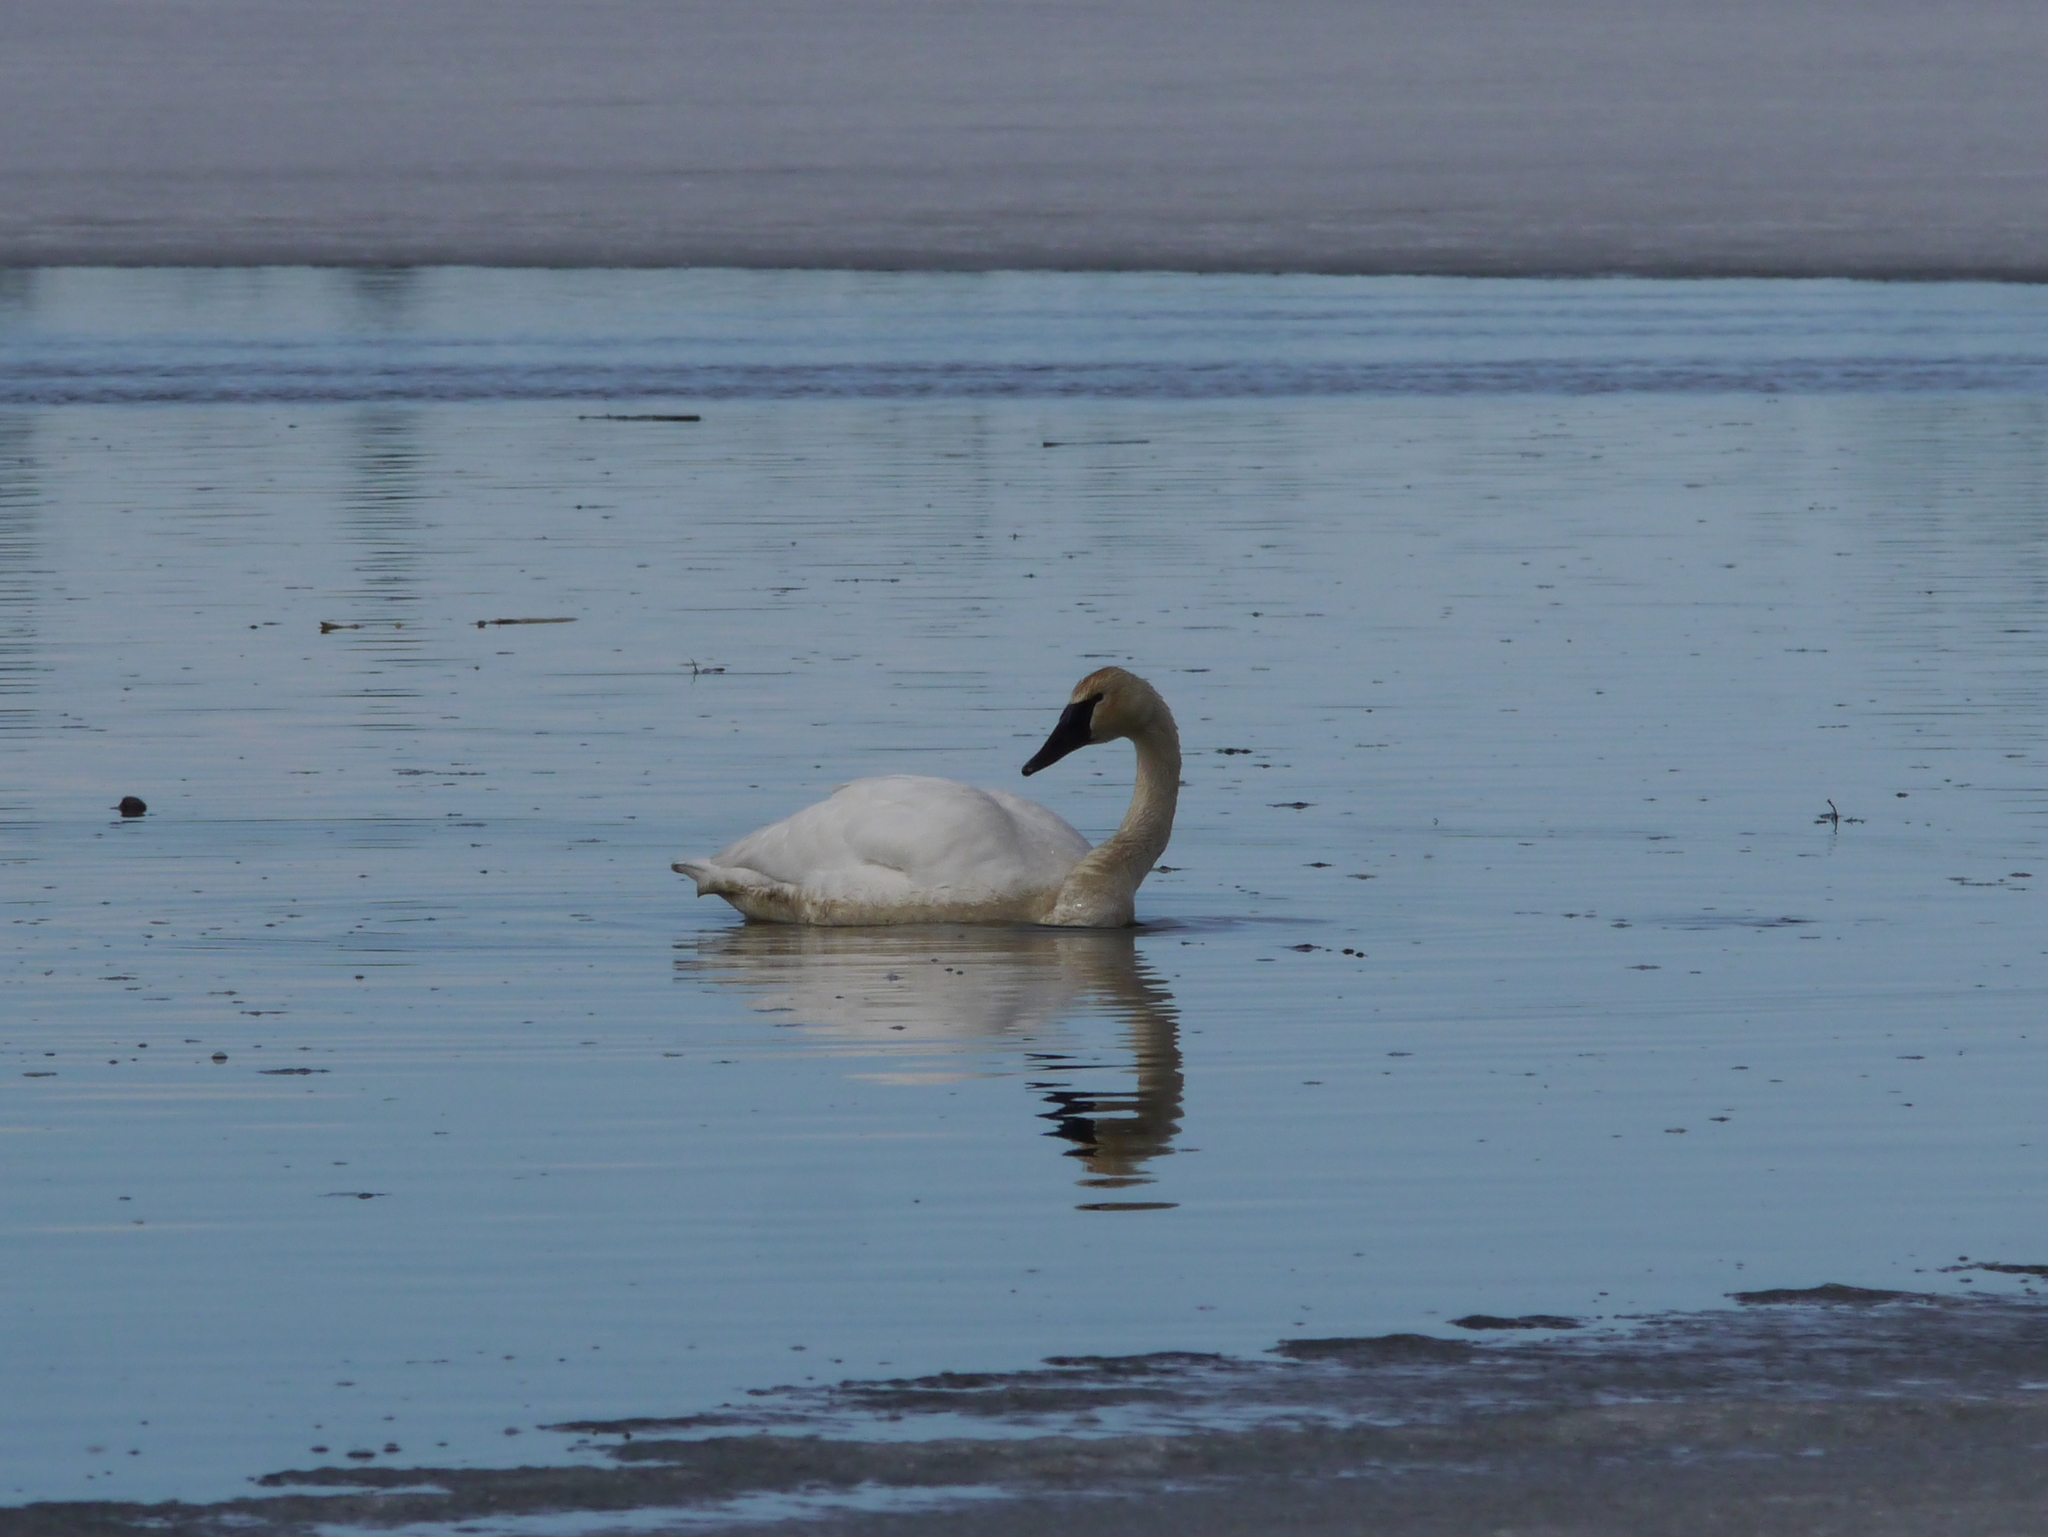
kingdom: Animalia
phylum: Chordata
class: Aves
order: Anseriformes
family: Anatidae
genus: Cygnus
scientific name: Cygnus buccinator
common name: Trumpeter swan
